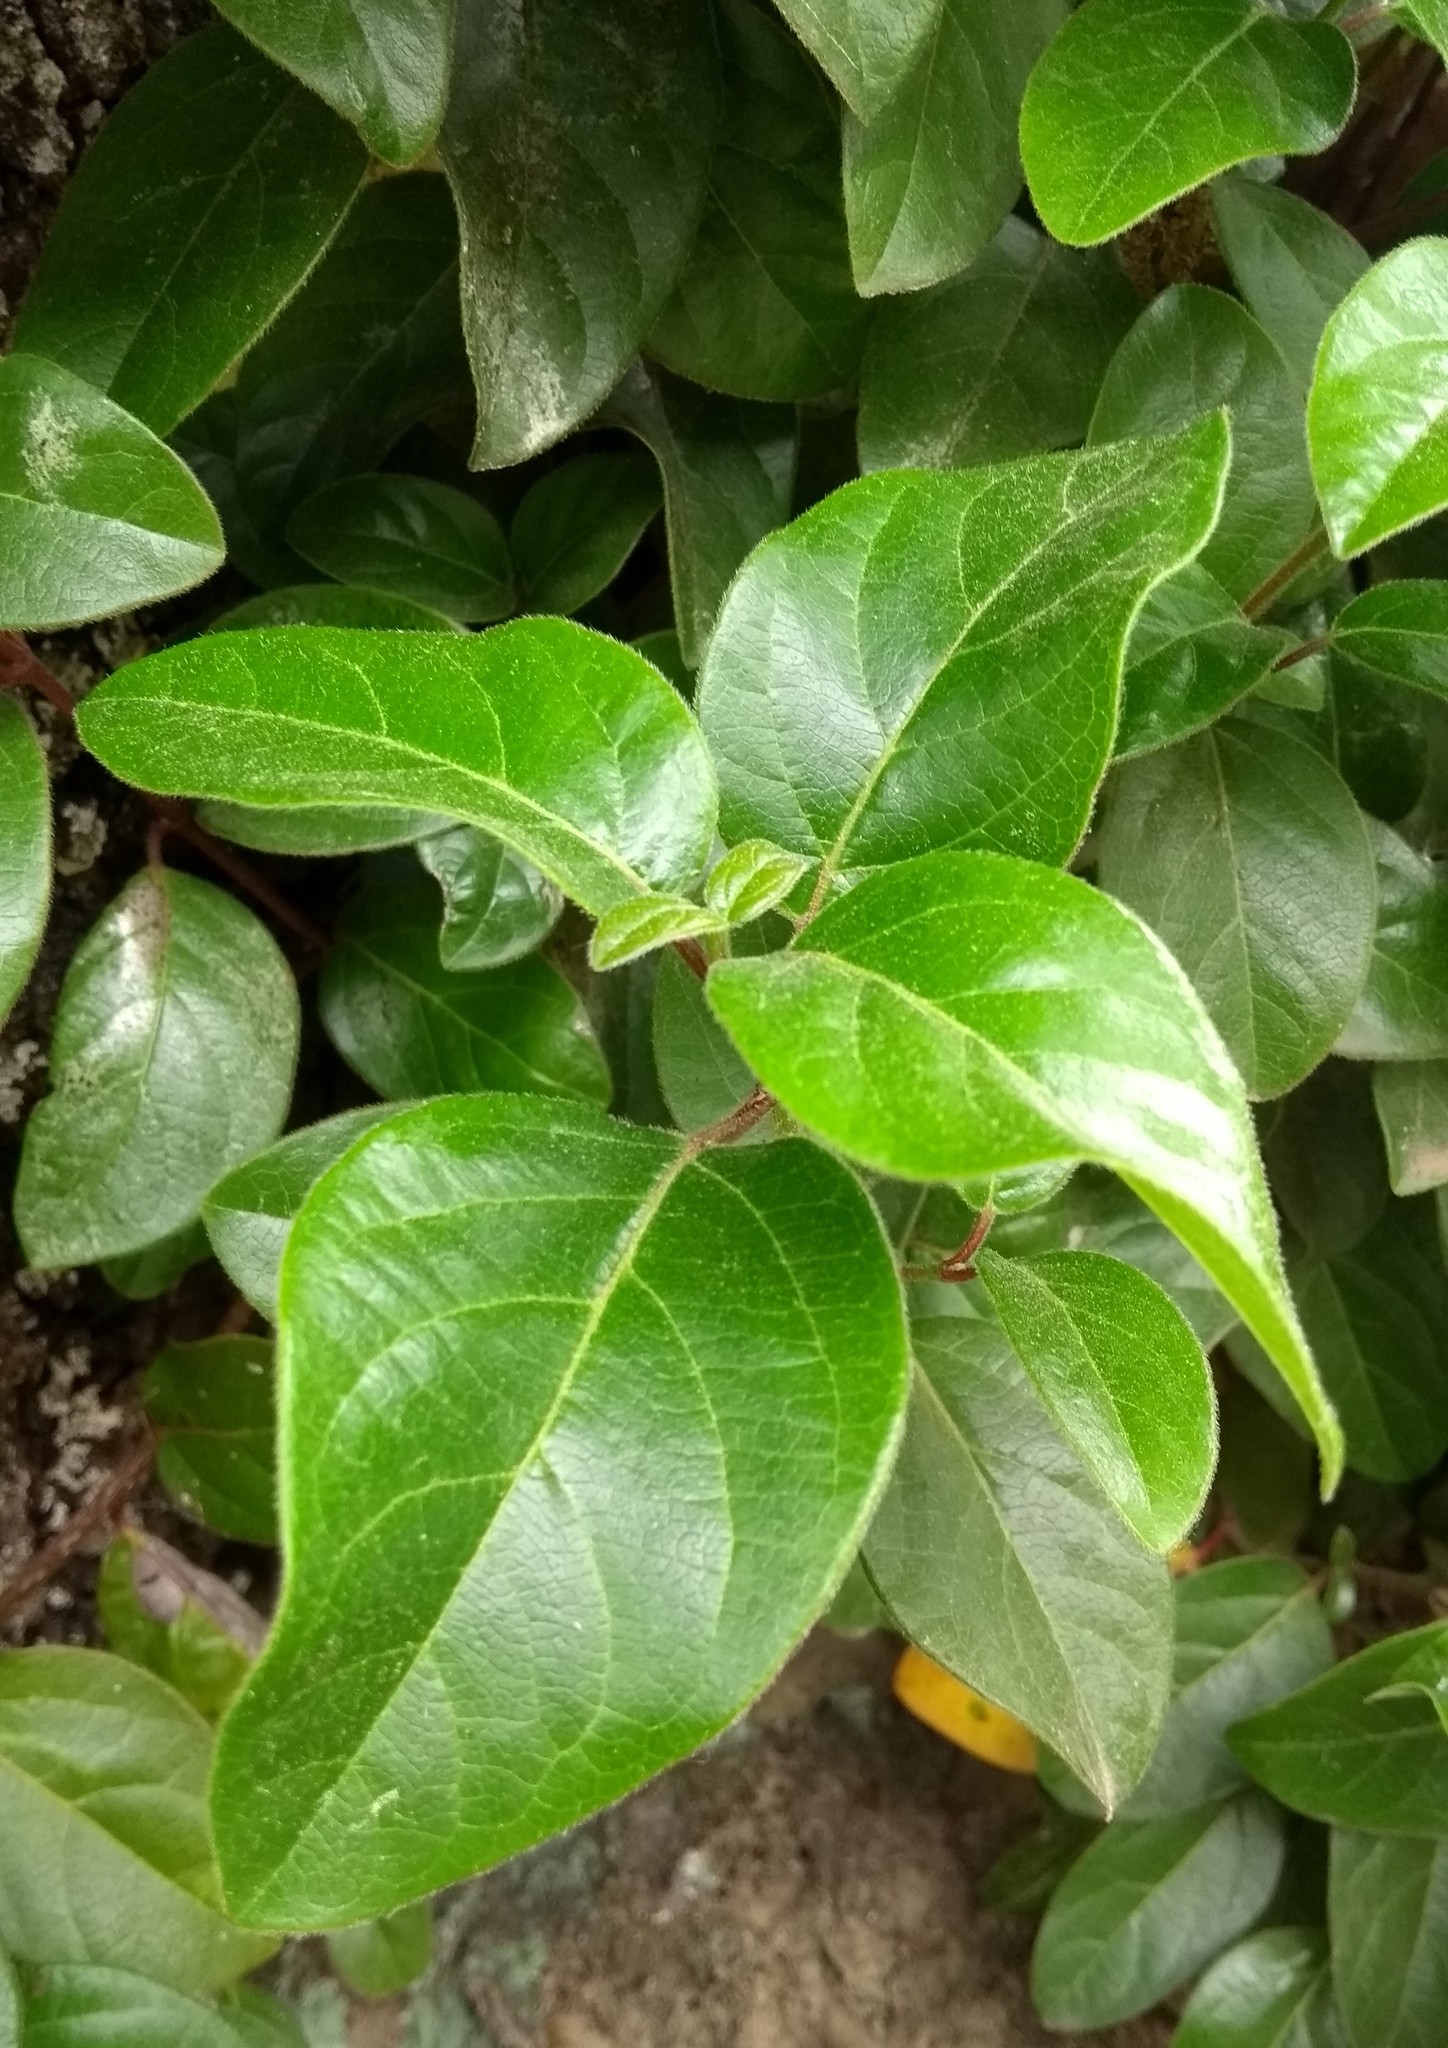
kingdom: Plantae
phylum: Tracheophyta
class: Magnoliopsida
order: Dipsacales
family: Viburnaceae
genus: Viburnum
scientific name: Viburnum tinus
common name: Laurustinus
